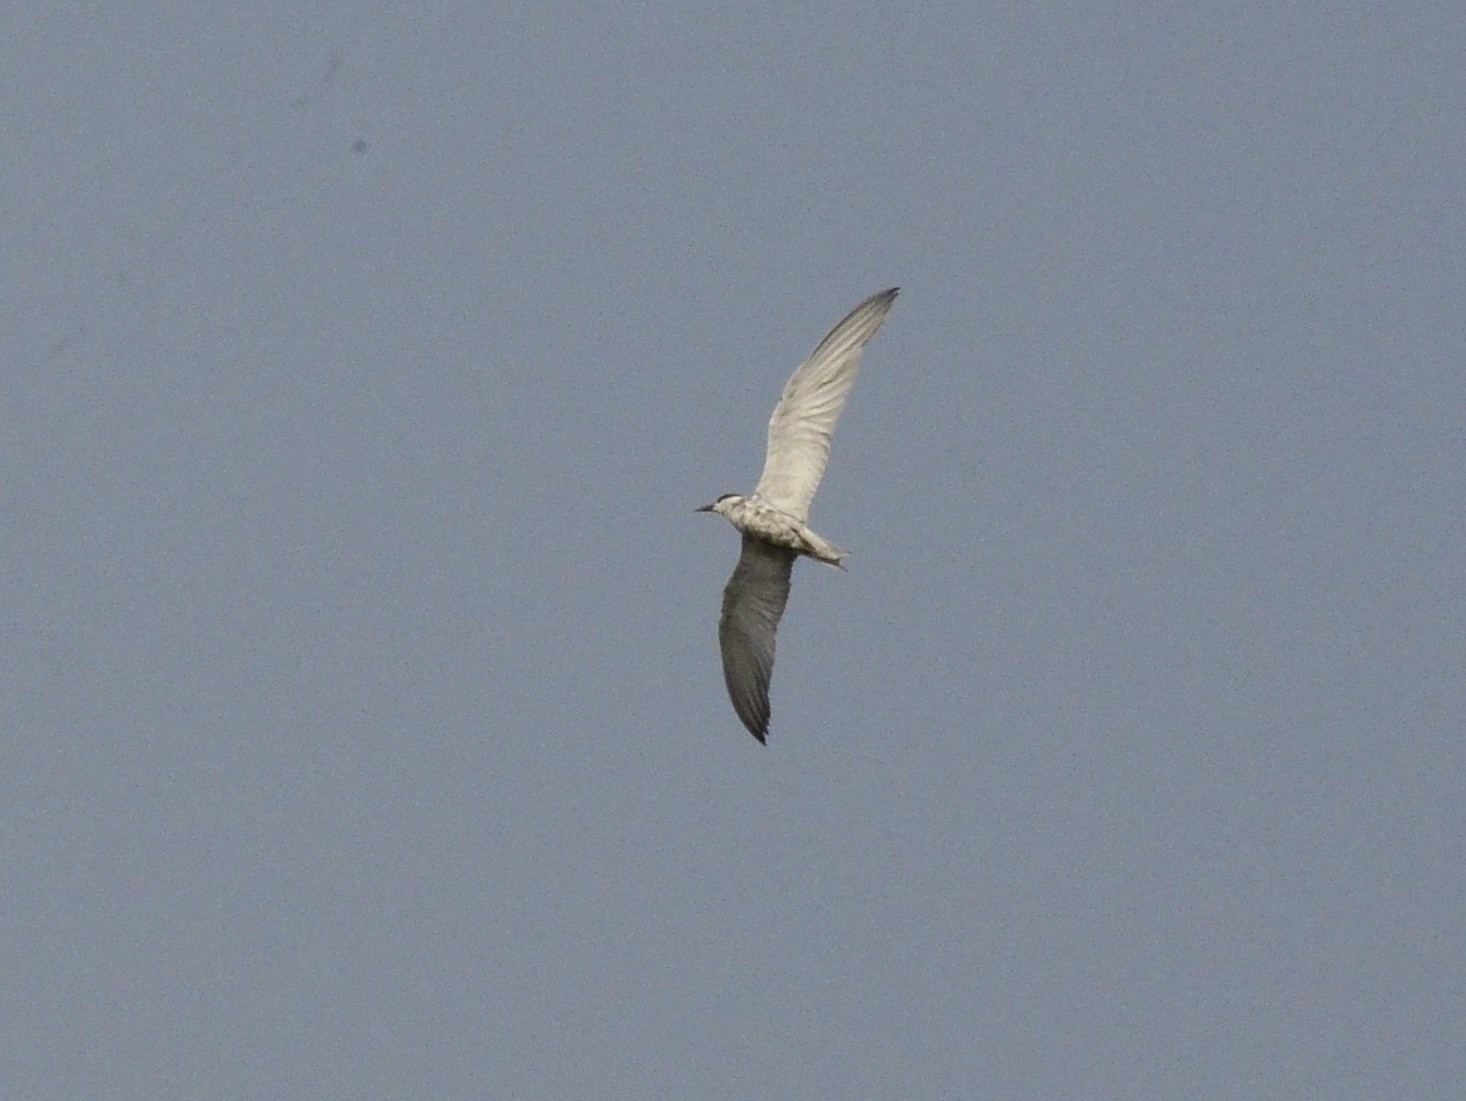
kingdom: Animalia
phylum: Chordata
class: Aves
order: Charadriiformes
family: Laridae
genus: Chlidonias
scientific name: Chlidonias hybrida
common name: Whiskered tern
